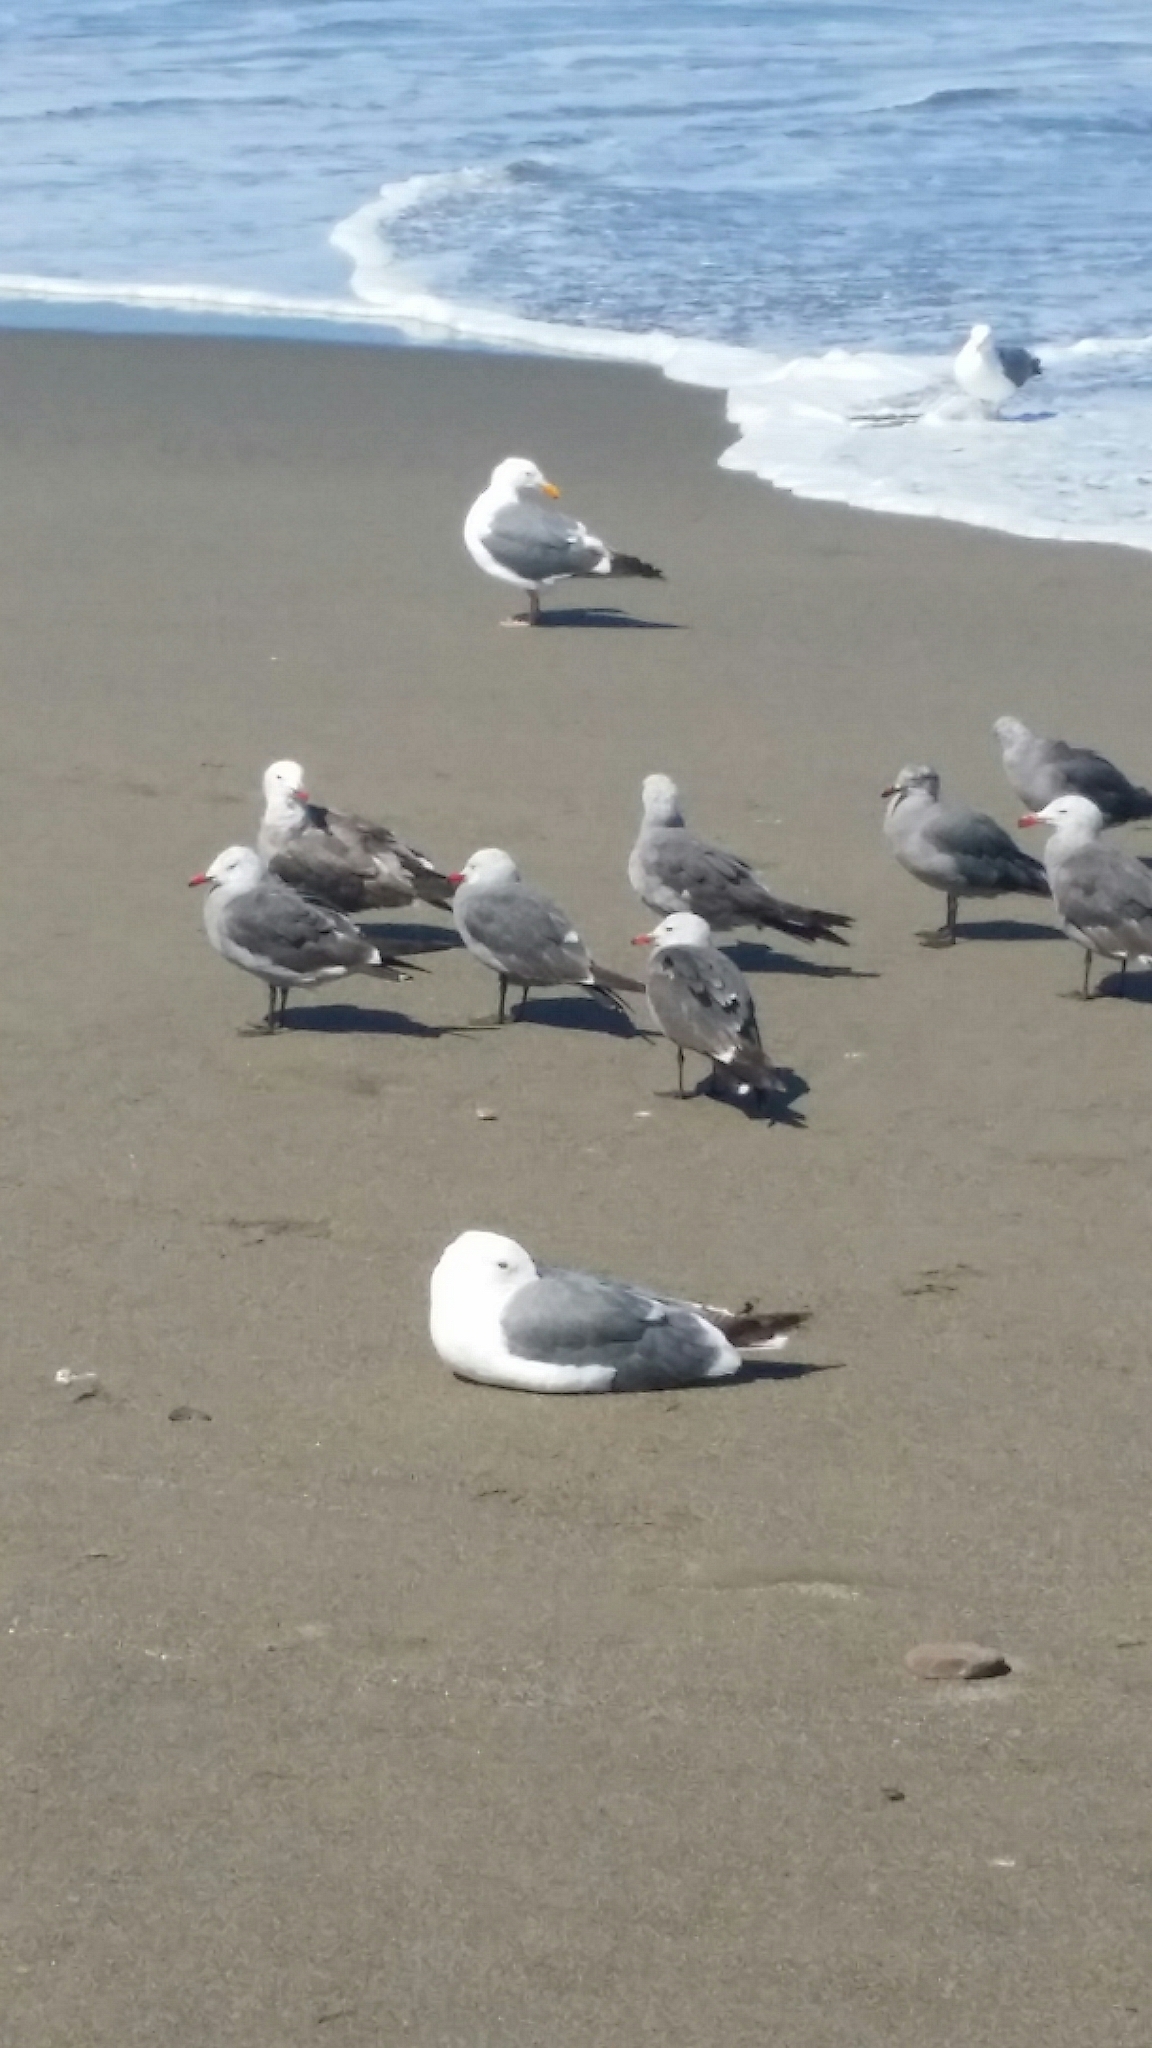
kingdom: Animalia
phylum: Chordata
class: Aves
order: Charadriiformes
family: Laridae
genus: Larus
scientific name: Larus heermanni
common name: Heermann's gull
